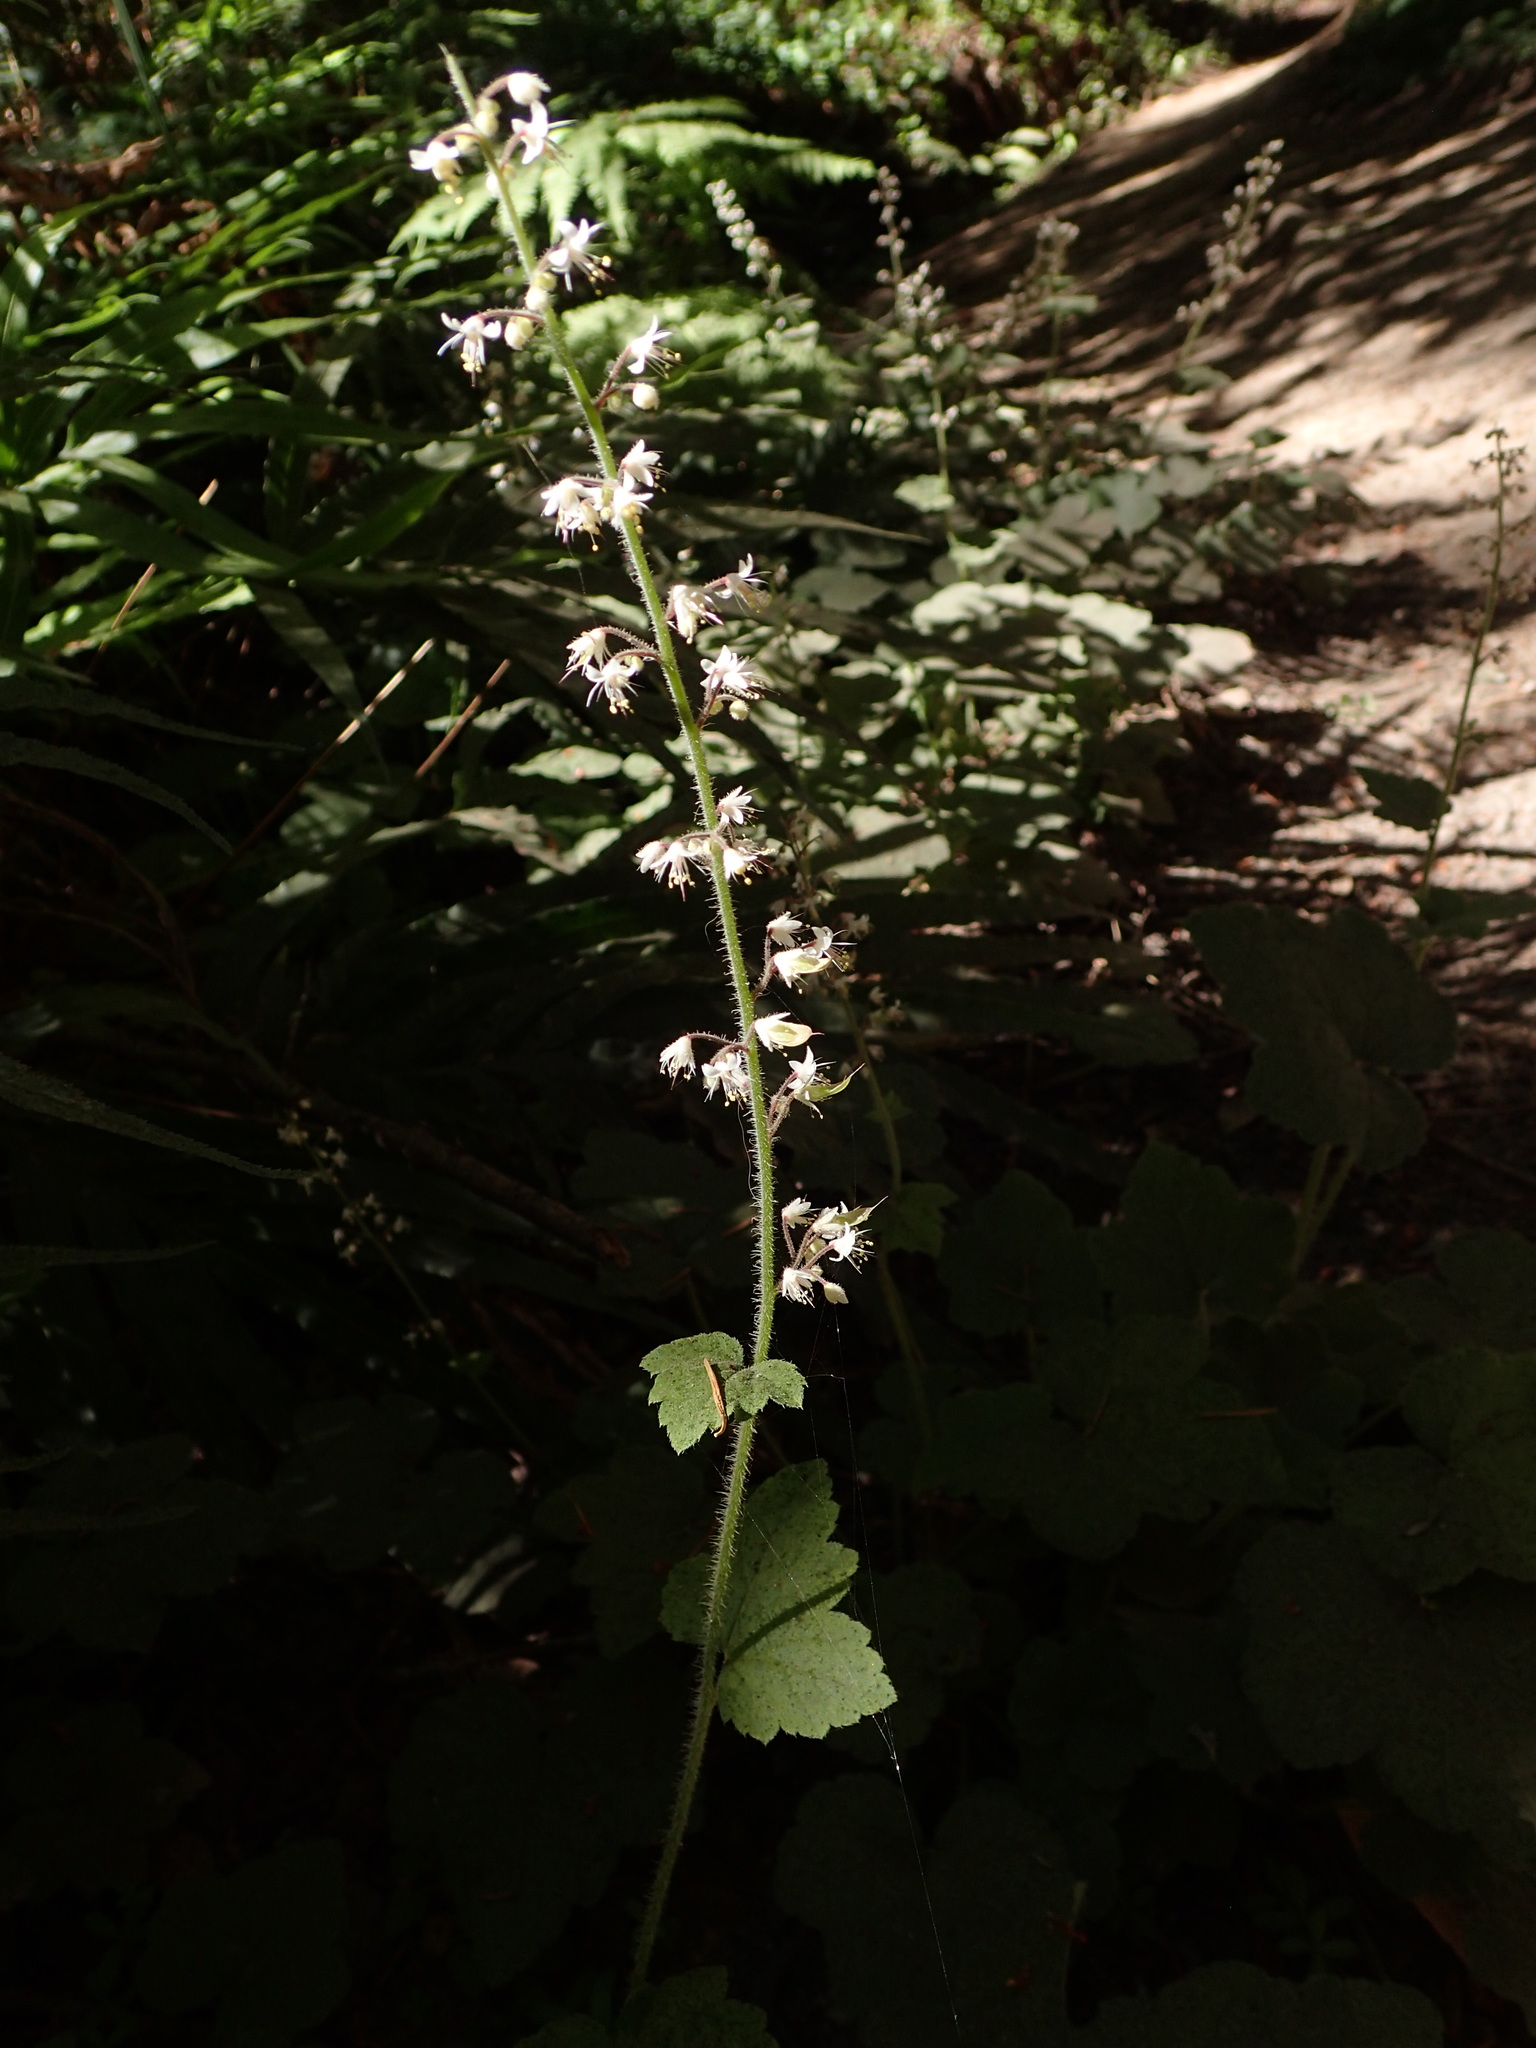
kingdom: Plantae
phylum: Tracheophyta
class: Magnoliopsida
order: Saxifragales
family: Saxifragaceae
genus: Tiarella
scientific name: Tiarella trifoliata
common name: Sugar-scoop
